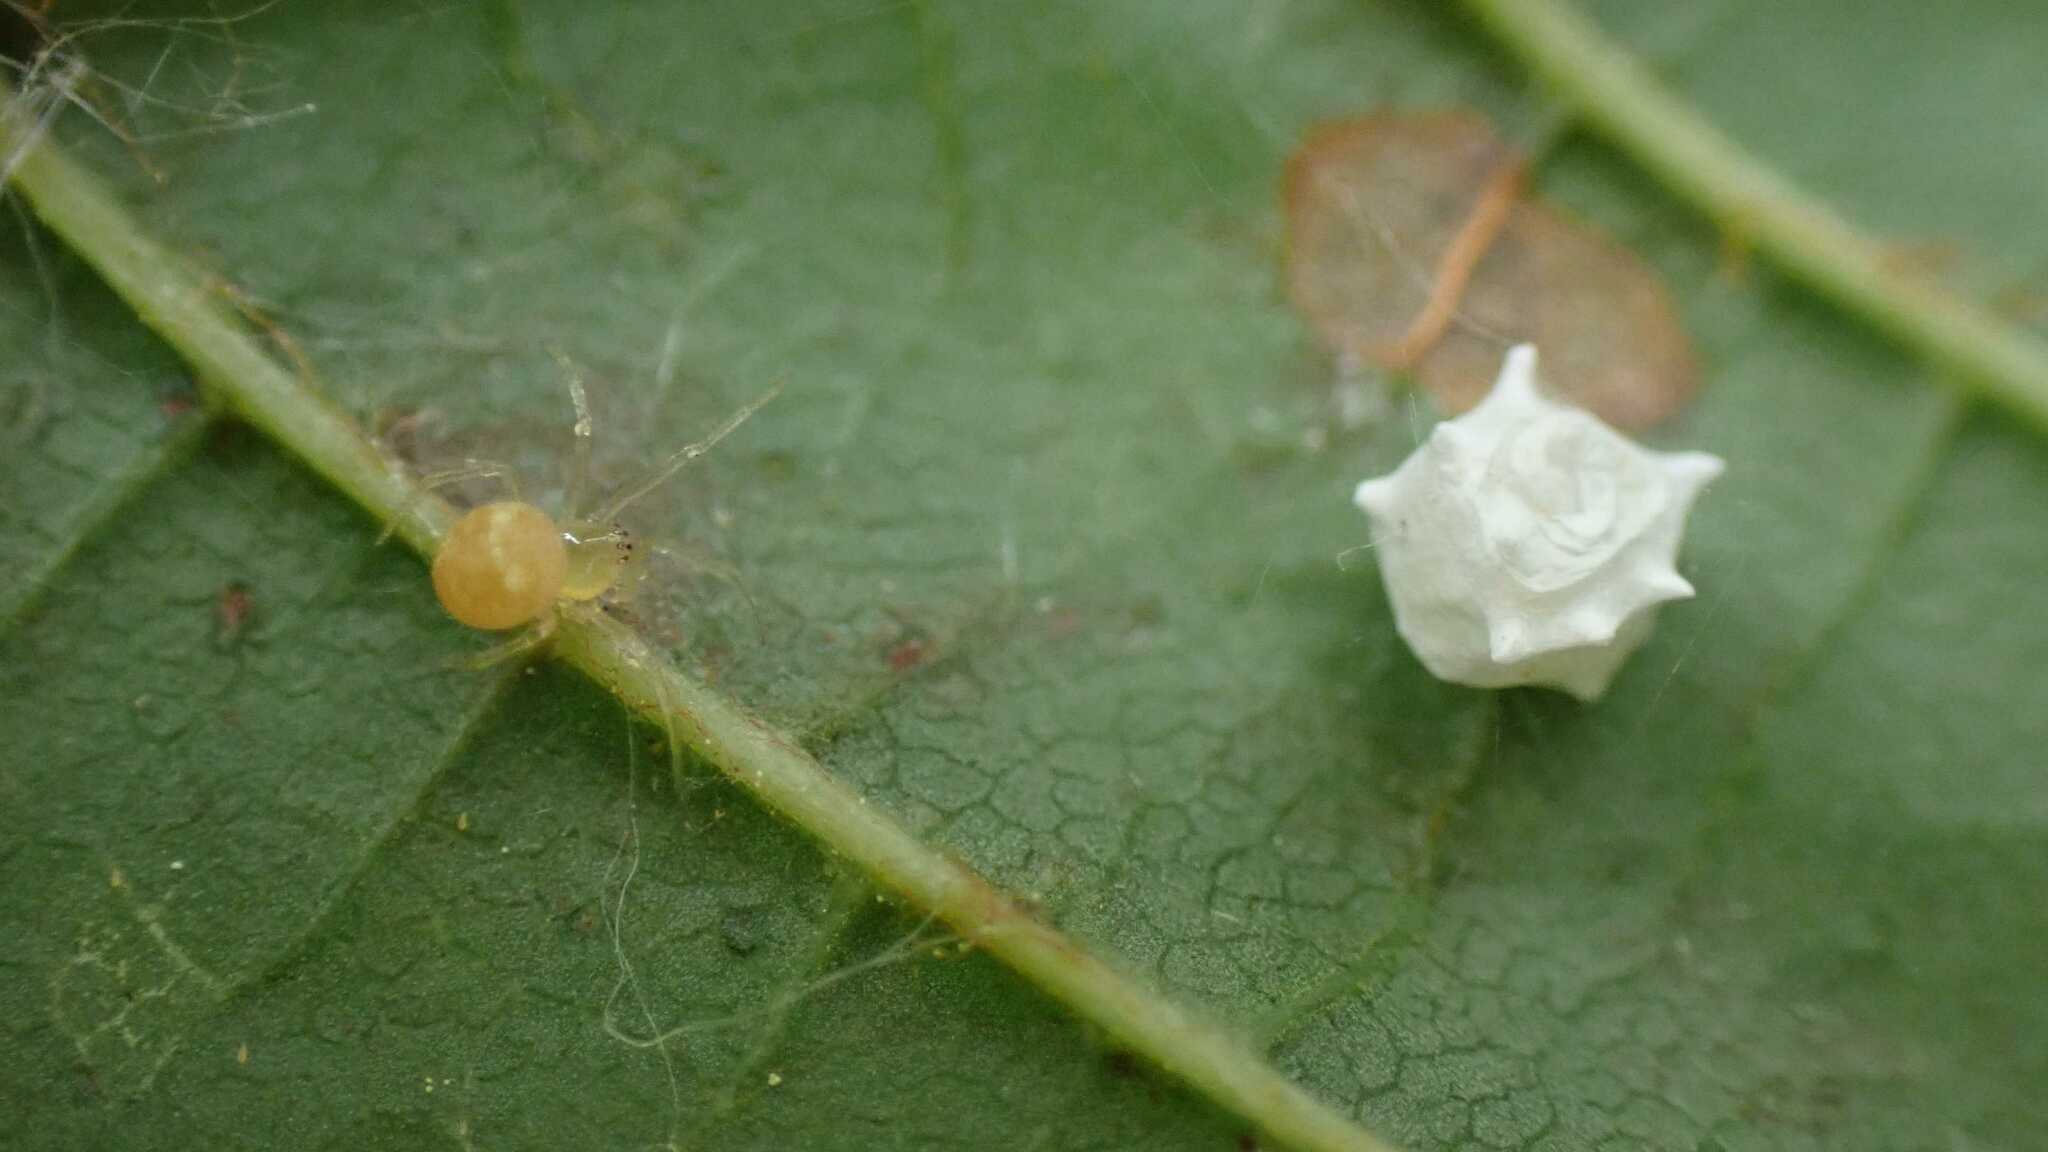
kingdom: Animalia
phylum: Arthropoda
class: Arachnida
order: Araneae
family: Theridiidae
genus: Paidiscura
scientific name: Paidiscura pallens
